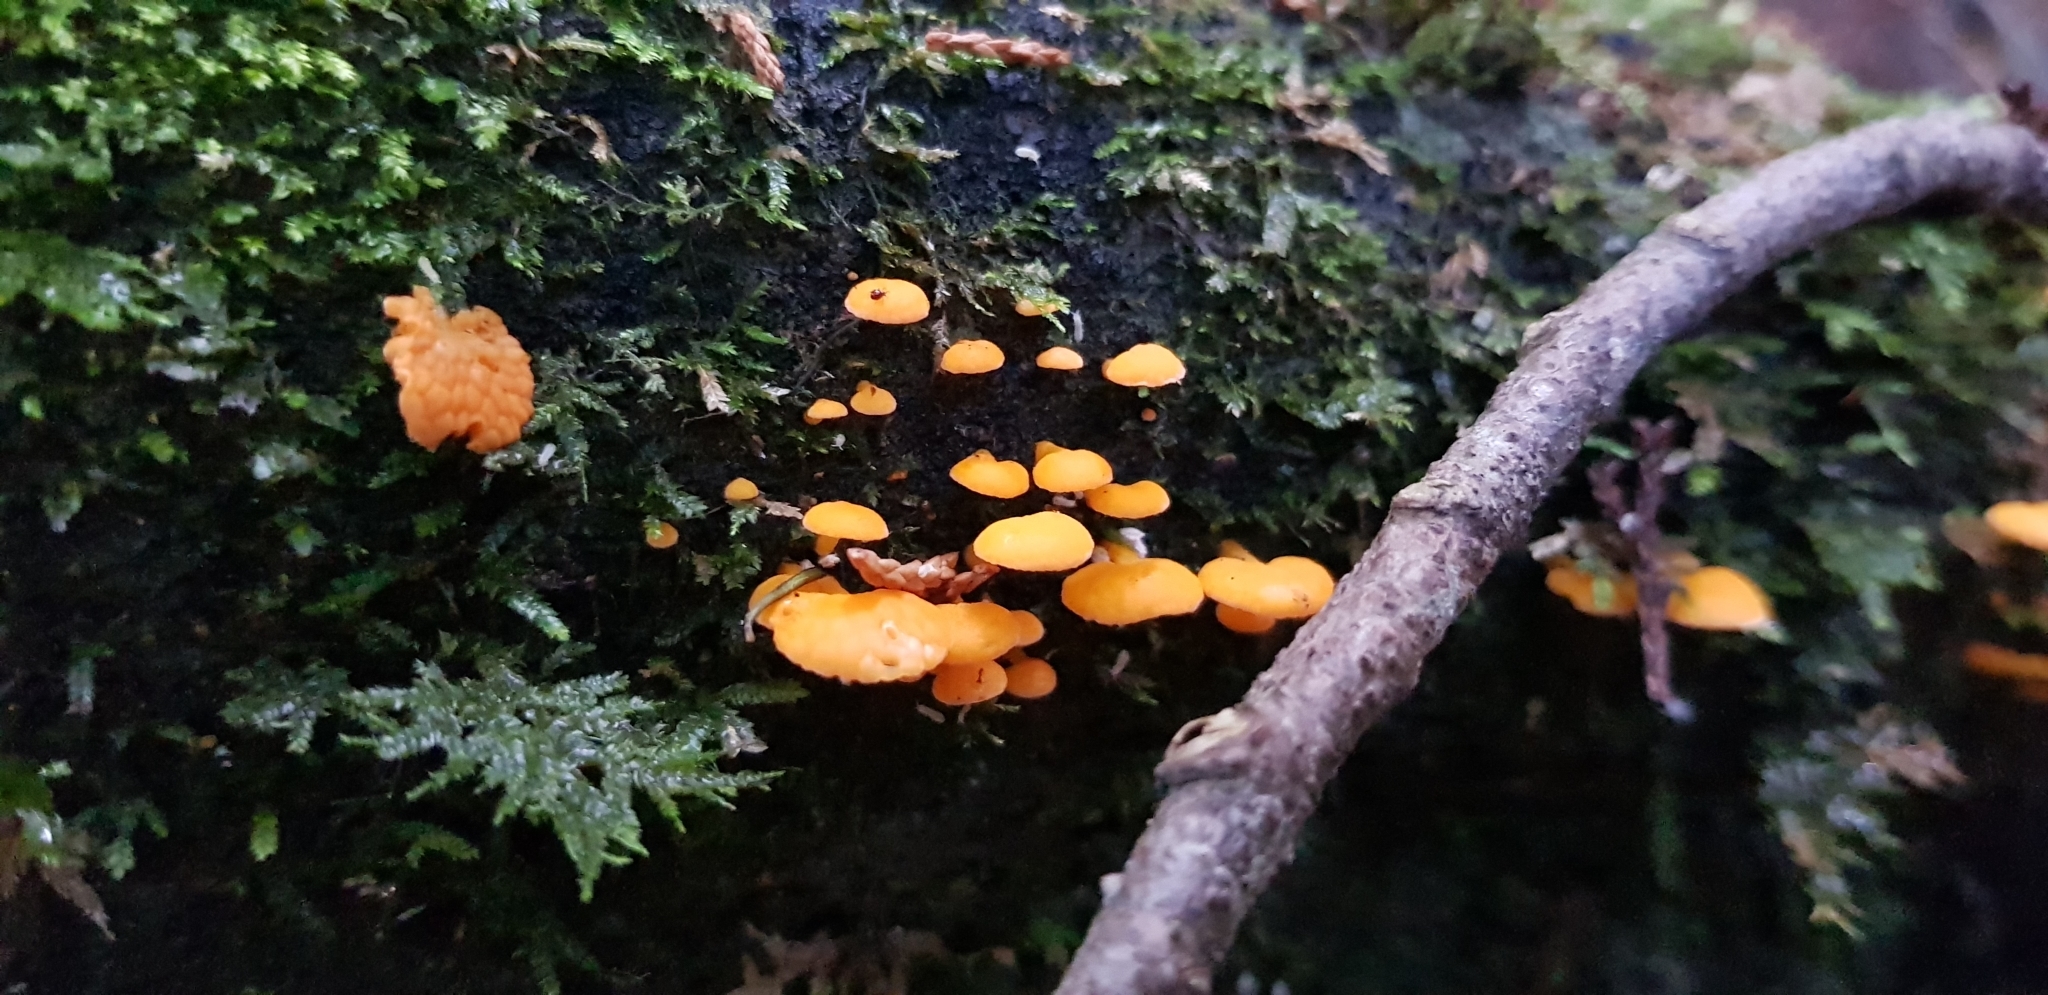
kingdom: Fungi
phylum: Basidiomycota
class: Agaricomycetes
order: Agaricales
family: Mycenaceae
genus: Favolaschia
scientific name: Favolaschia claudopus
